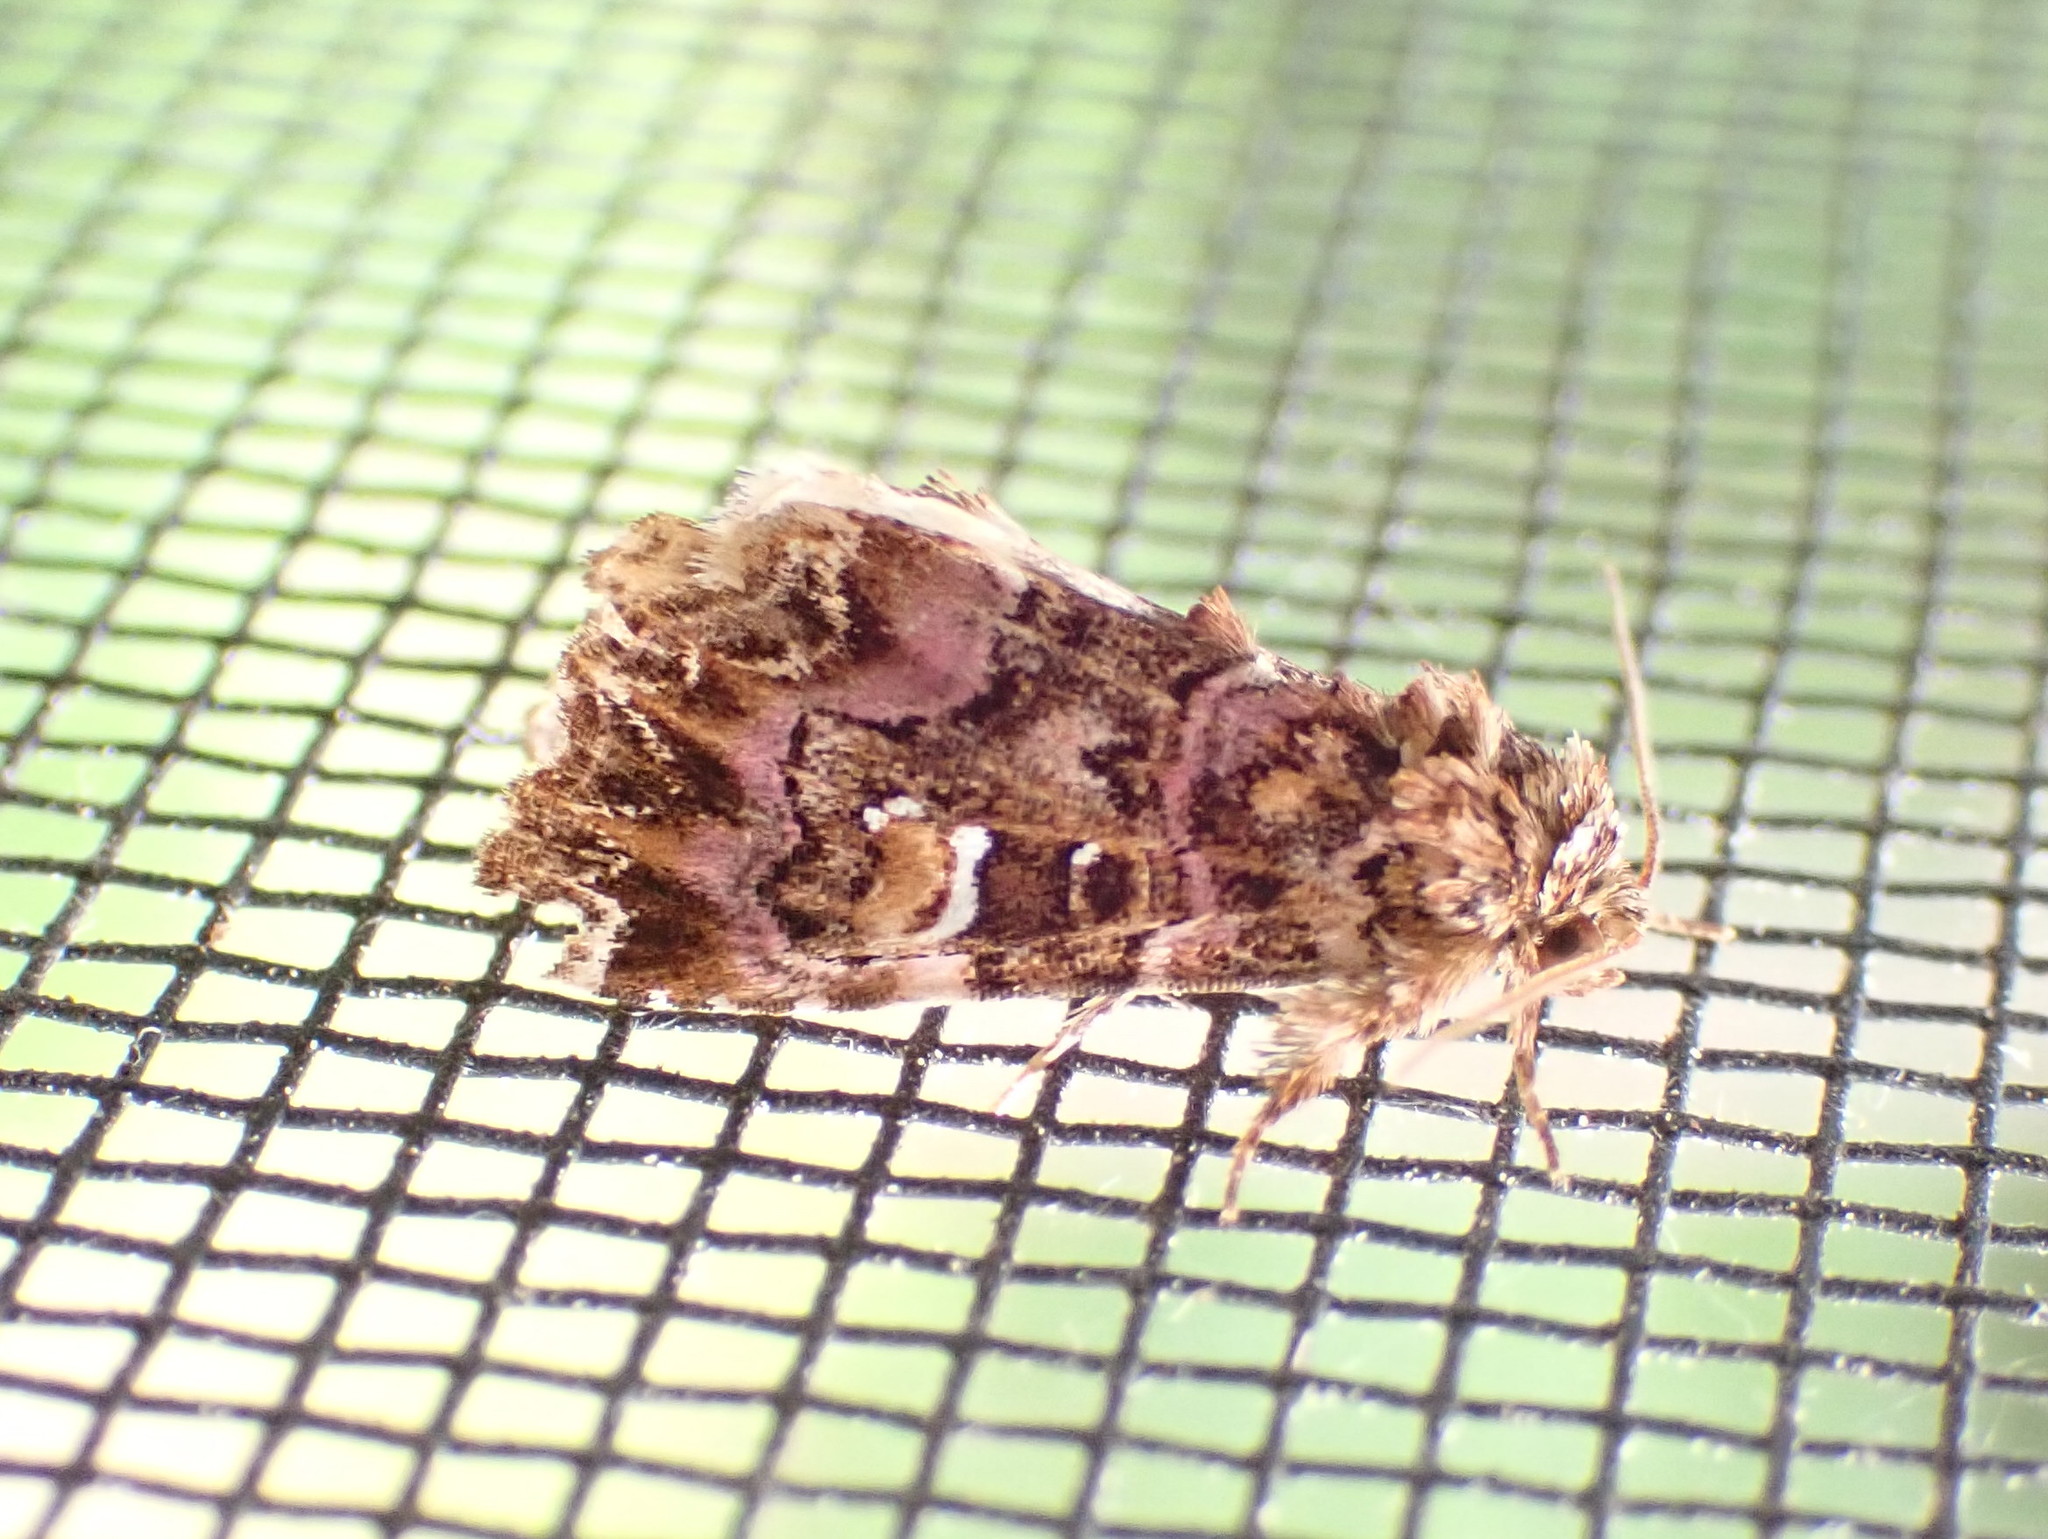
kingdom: Animalia
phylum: Arthropoda
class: Insecta
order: Lepidoptera
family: Noctuidae
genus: Callopistria
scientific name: Callopistria mollissima
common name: Pink-shaded fern moth
